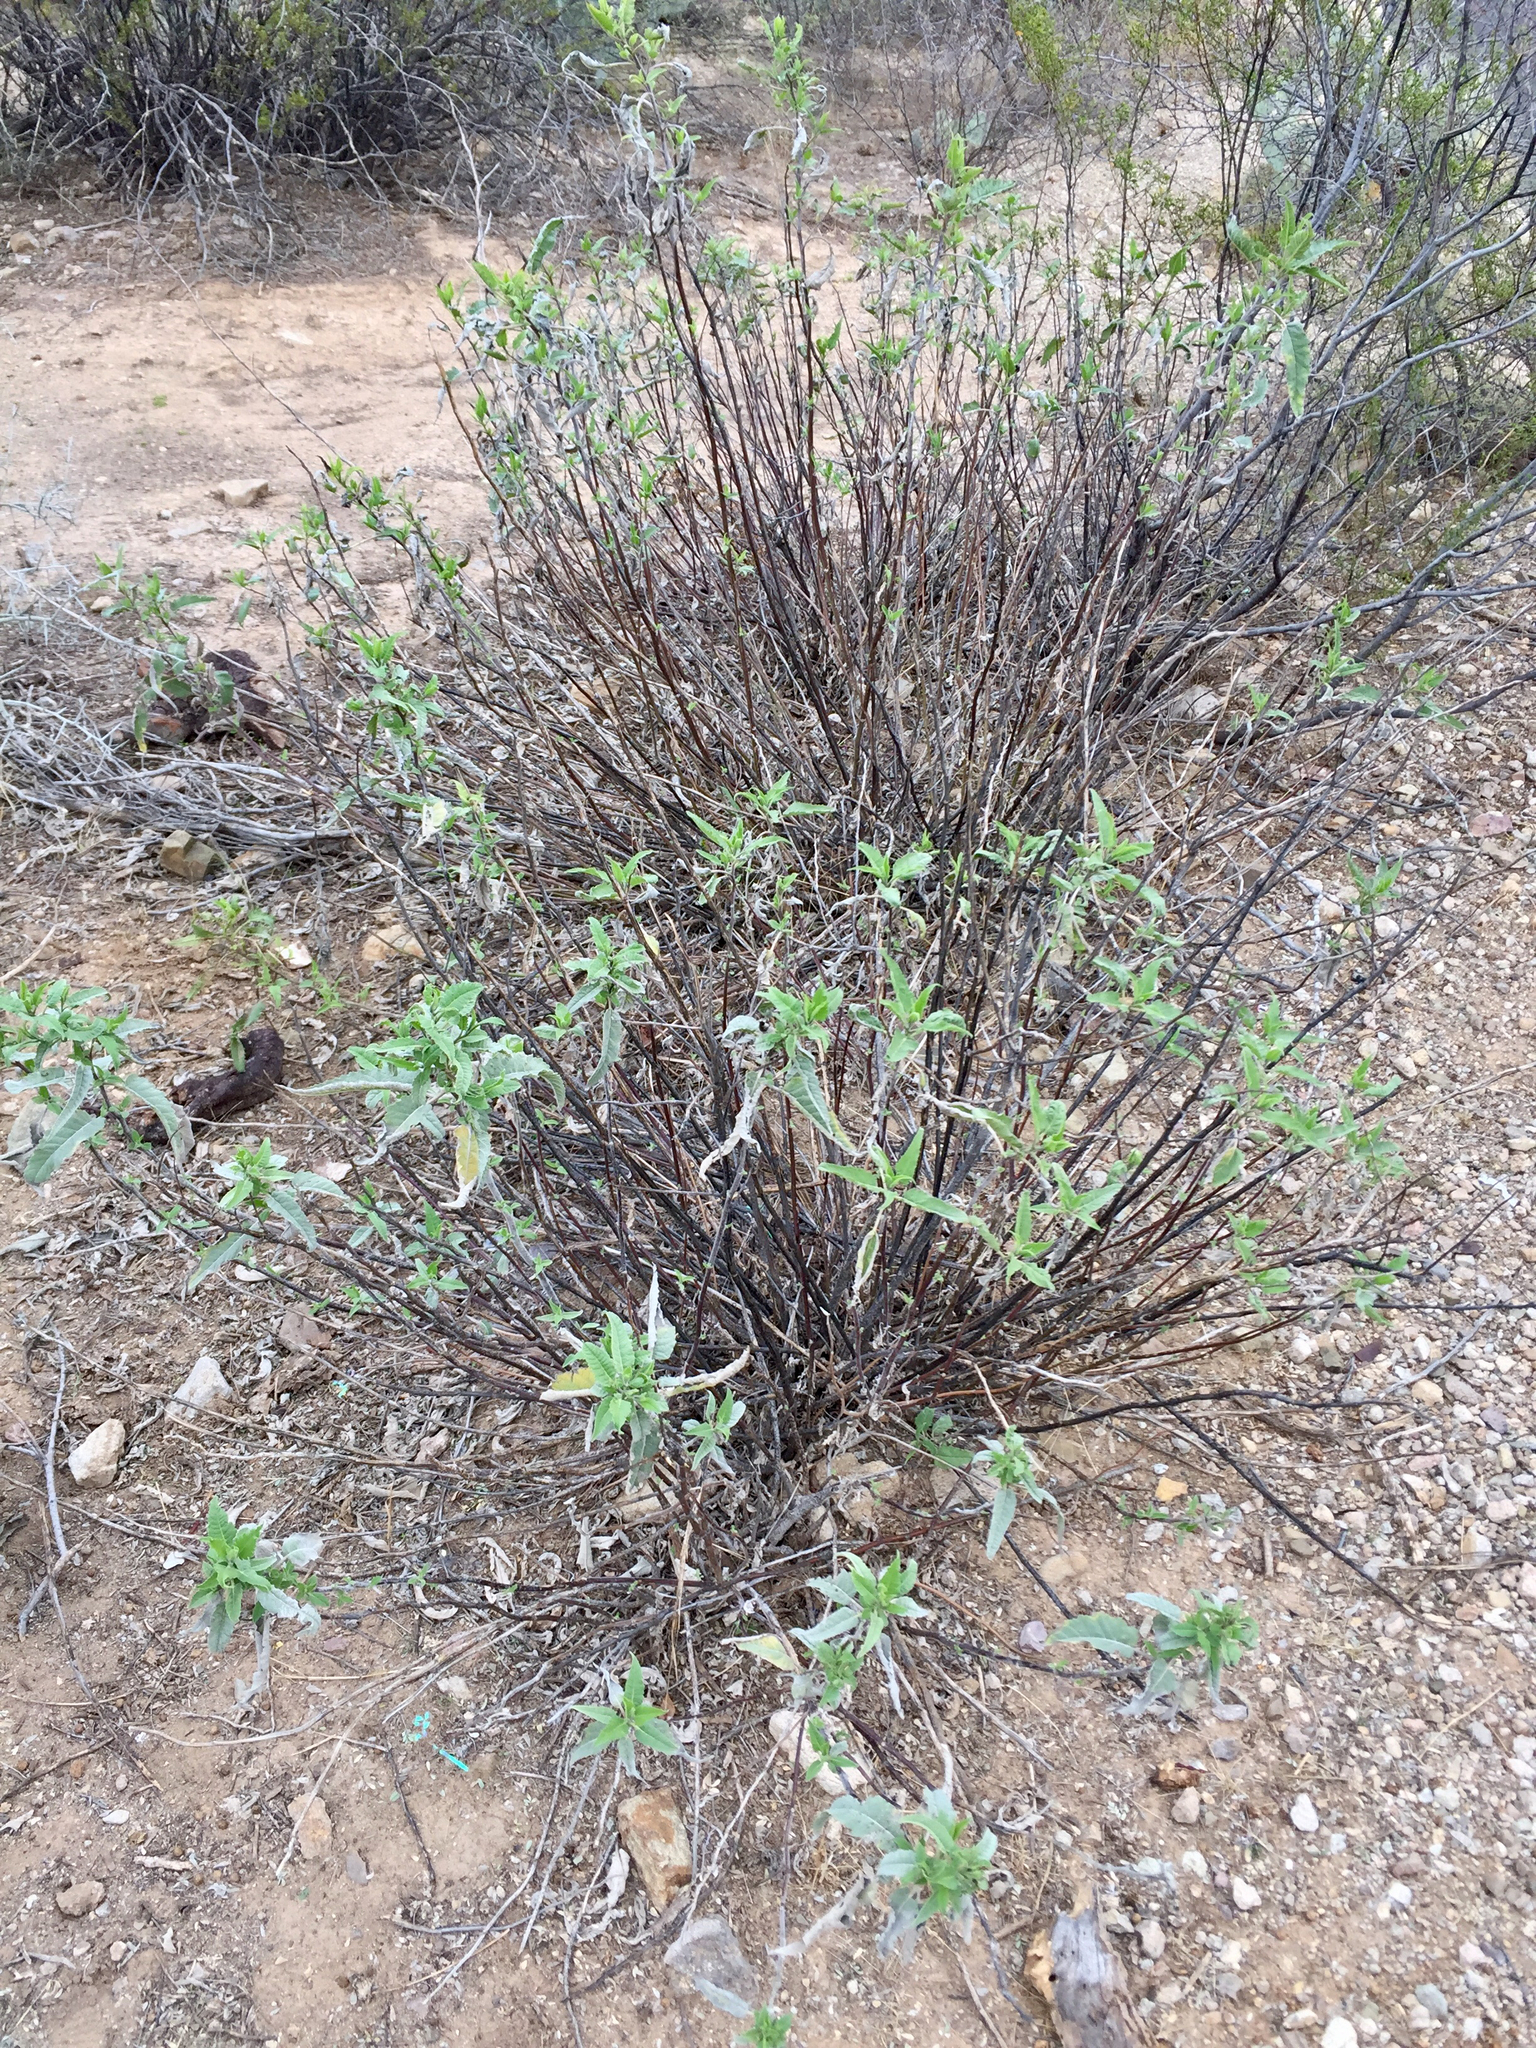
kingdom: Plantae
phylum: Tracheophyta
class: Magnoliopsida
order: Asterales
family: Asteraceae
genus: Ambrosia
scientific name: Ambrosia ambrosioides
